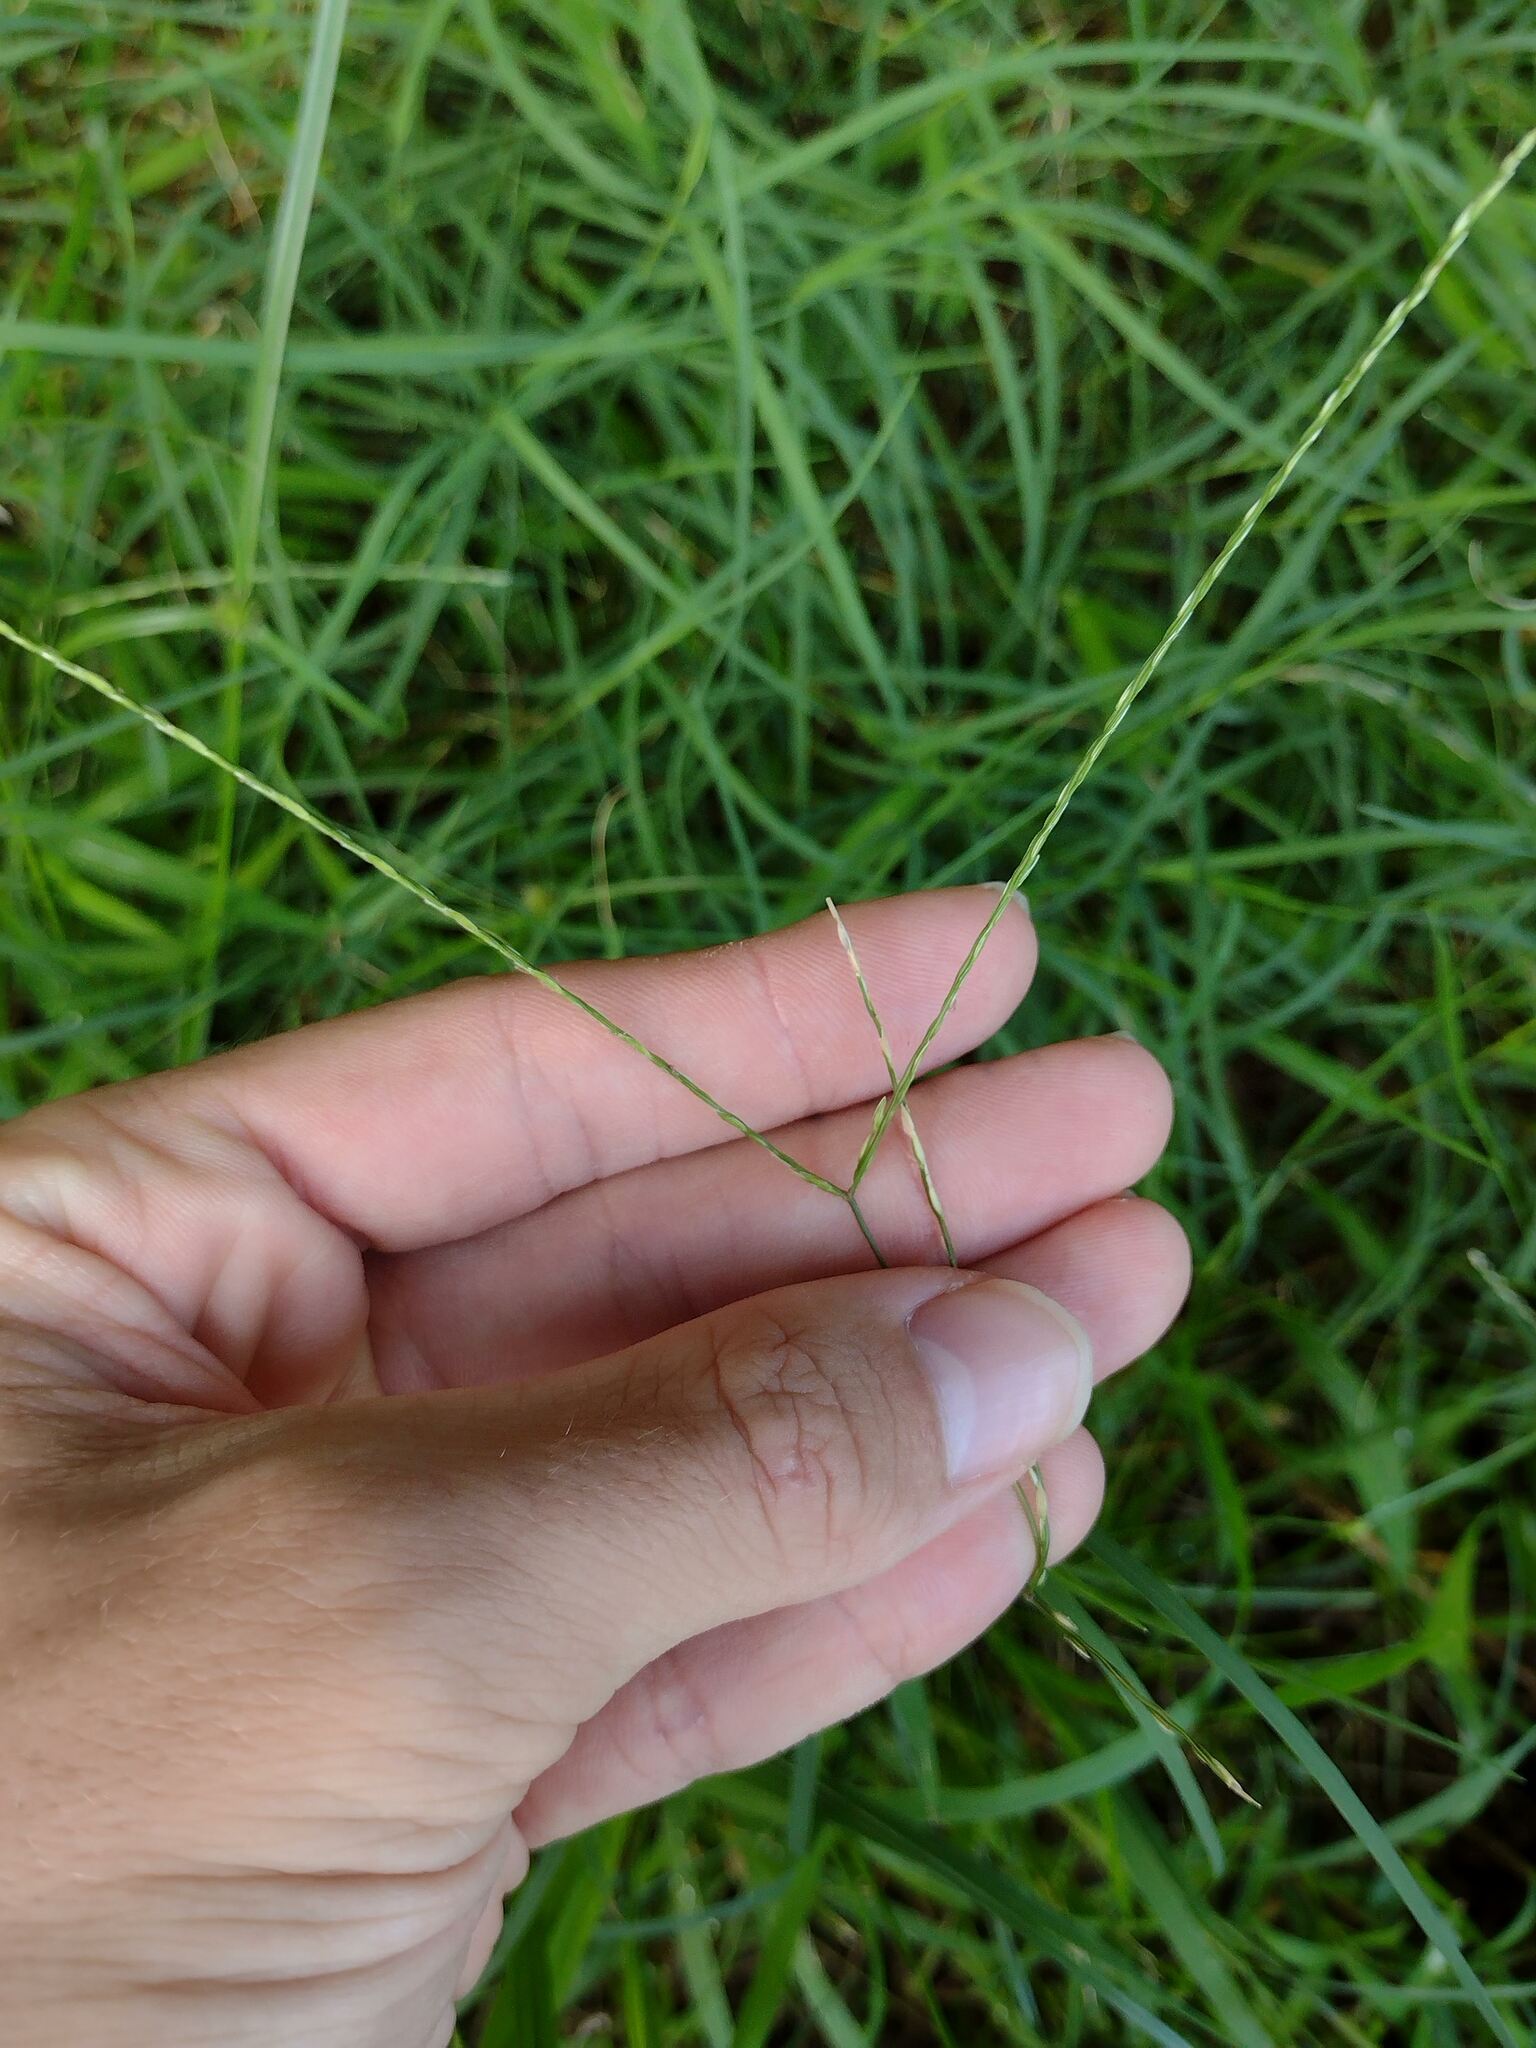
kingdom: Plantae
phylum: Tracheophyta
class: Liliopsida
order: Poales
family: Poaceae
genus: Digitaria
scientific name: Digitaria radicosa
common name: Trailing crabgrass
